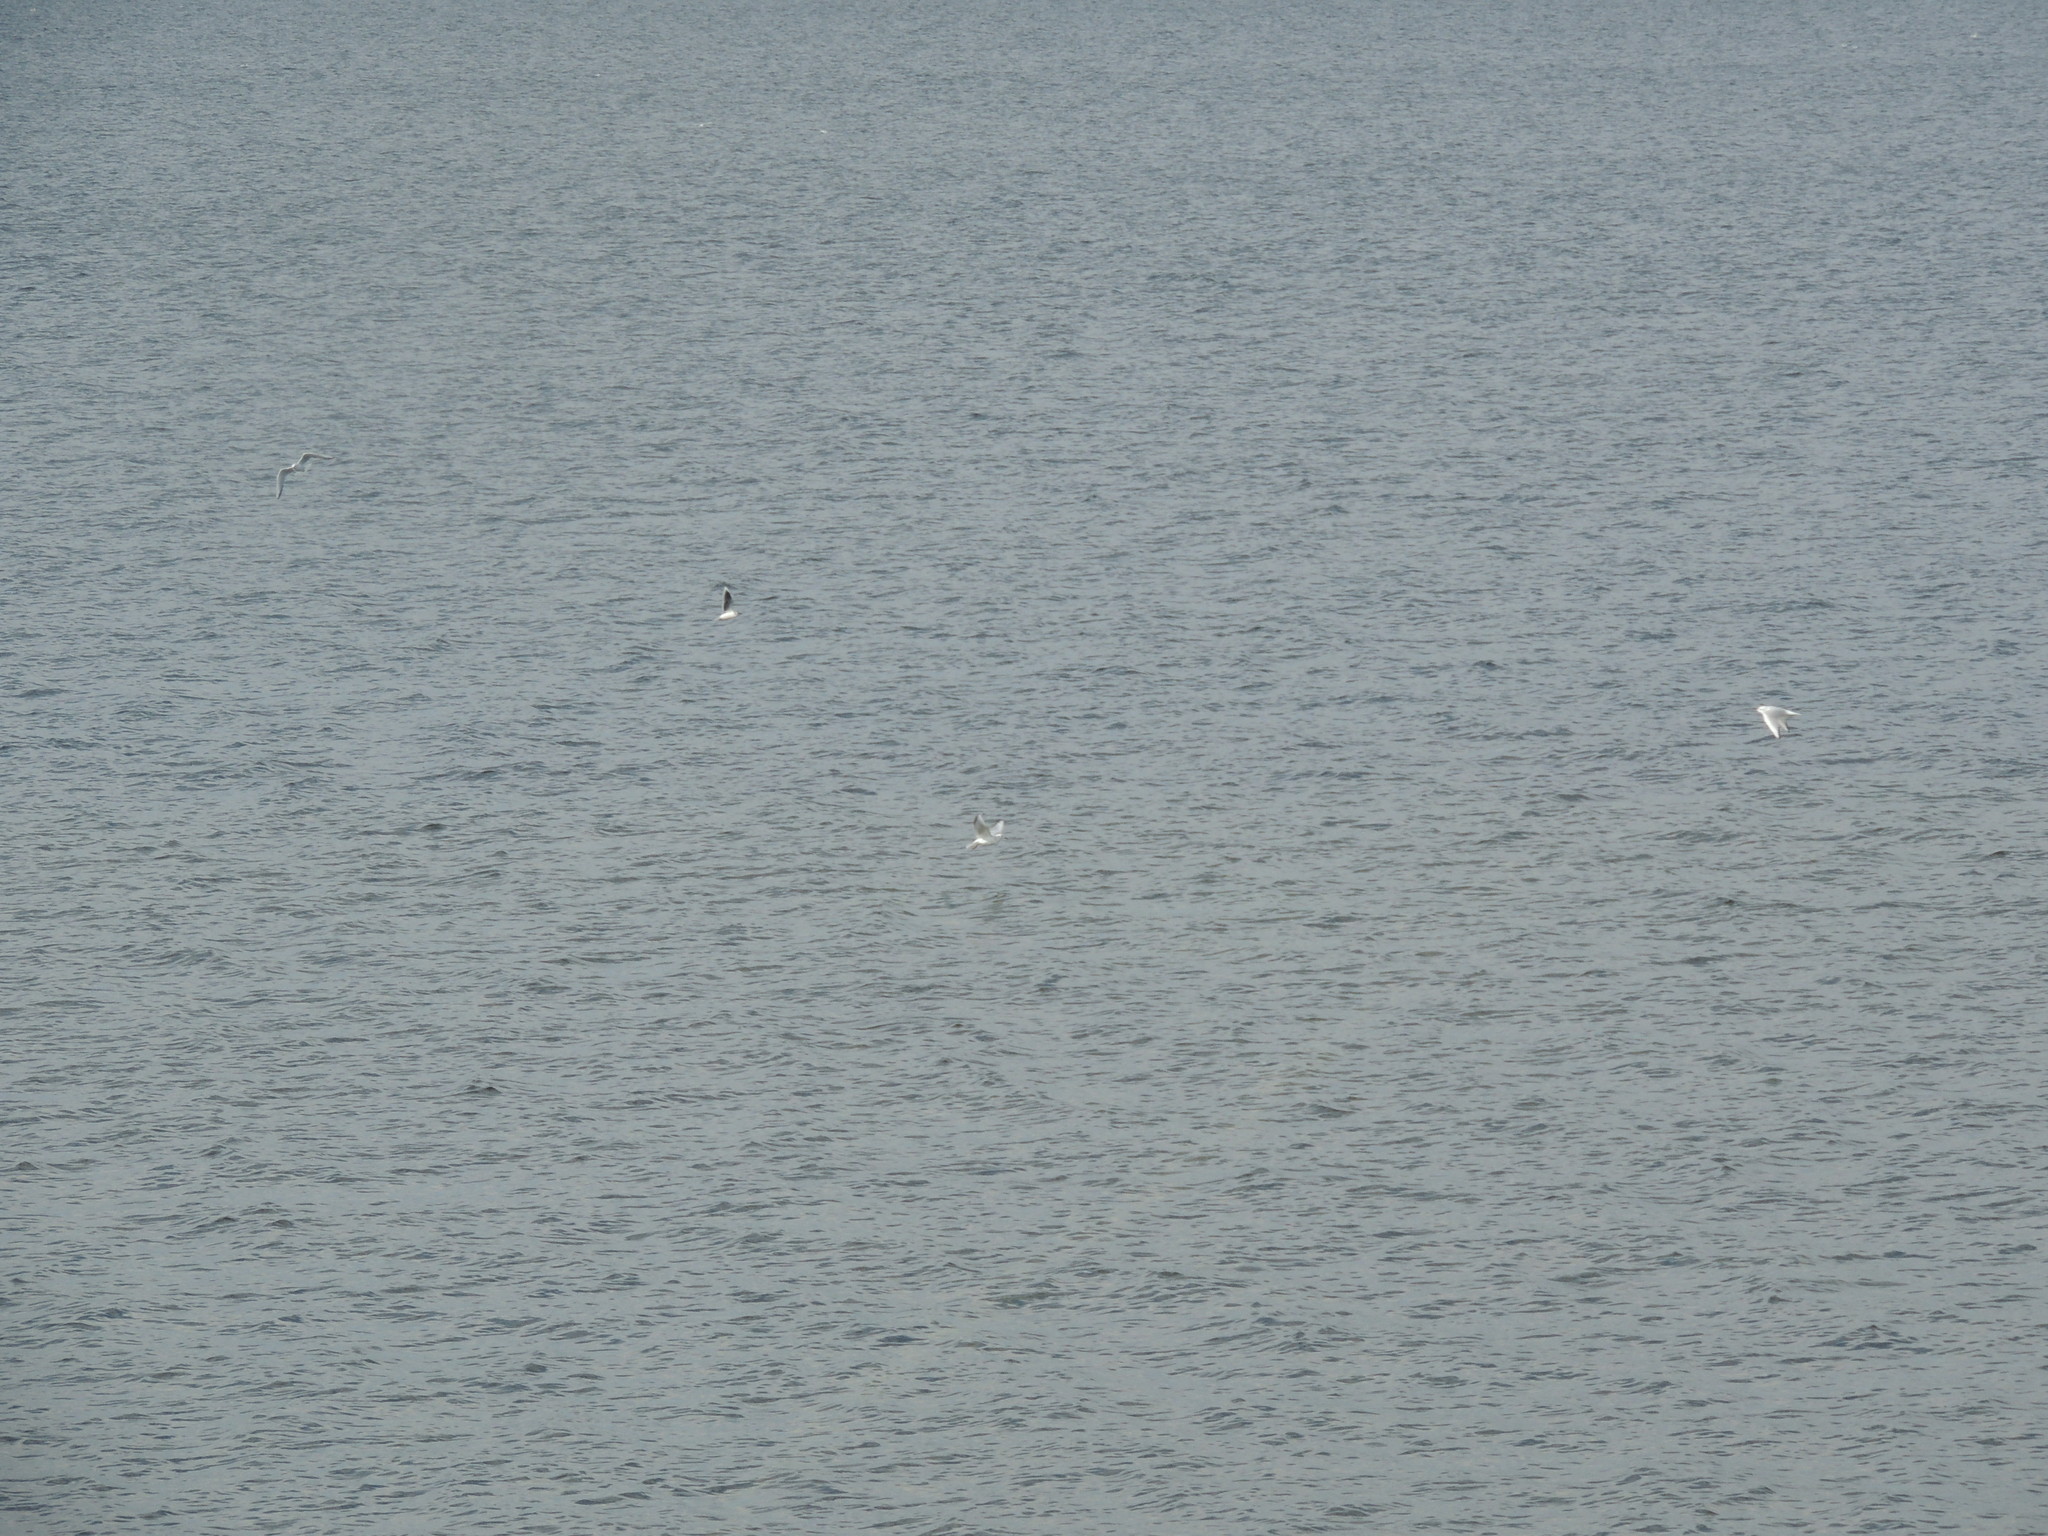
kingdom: Animalia
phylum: Chordata
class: Aves
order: Charadriiformes
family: Laridae
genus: Hydrocoloeus
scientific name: Hydrocoloeus minutus
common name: Little gull
